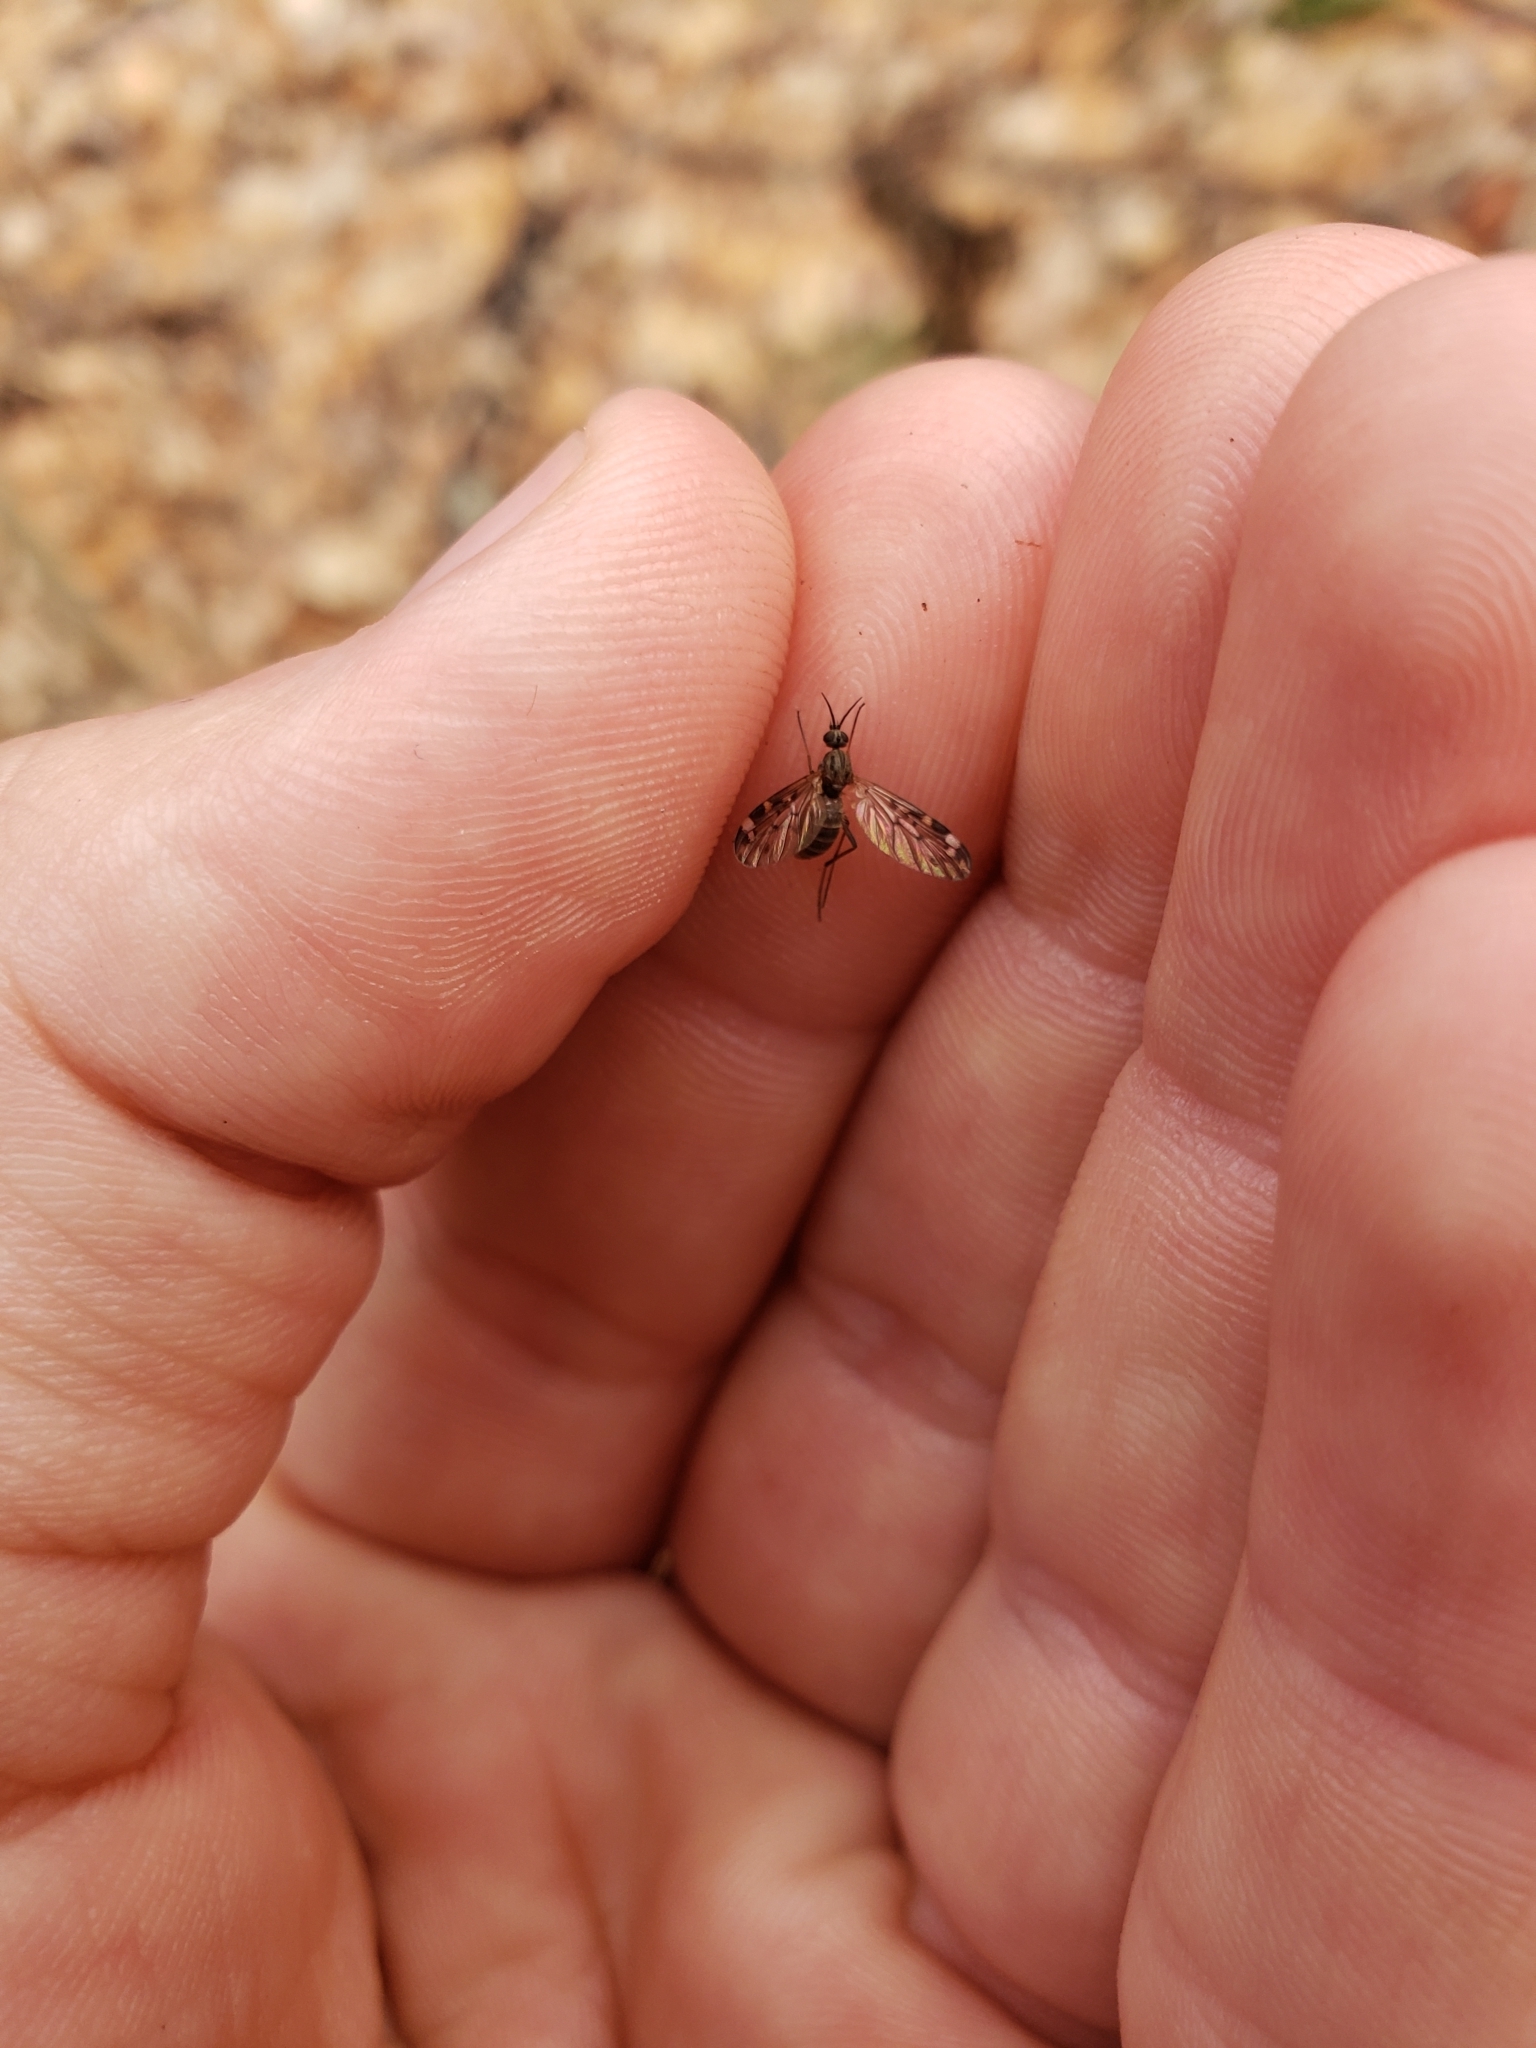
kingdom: Animalia
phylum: Arthropoda
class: Insecta
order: Diptera
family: Anisopodidae
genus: Sylvicola
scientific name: Sylvicola alternata
